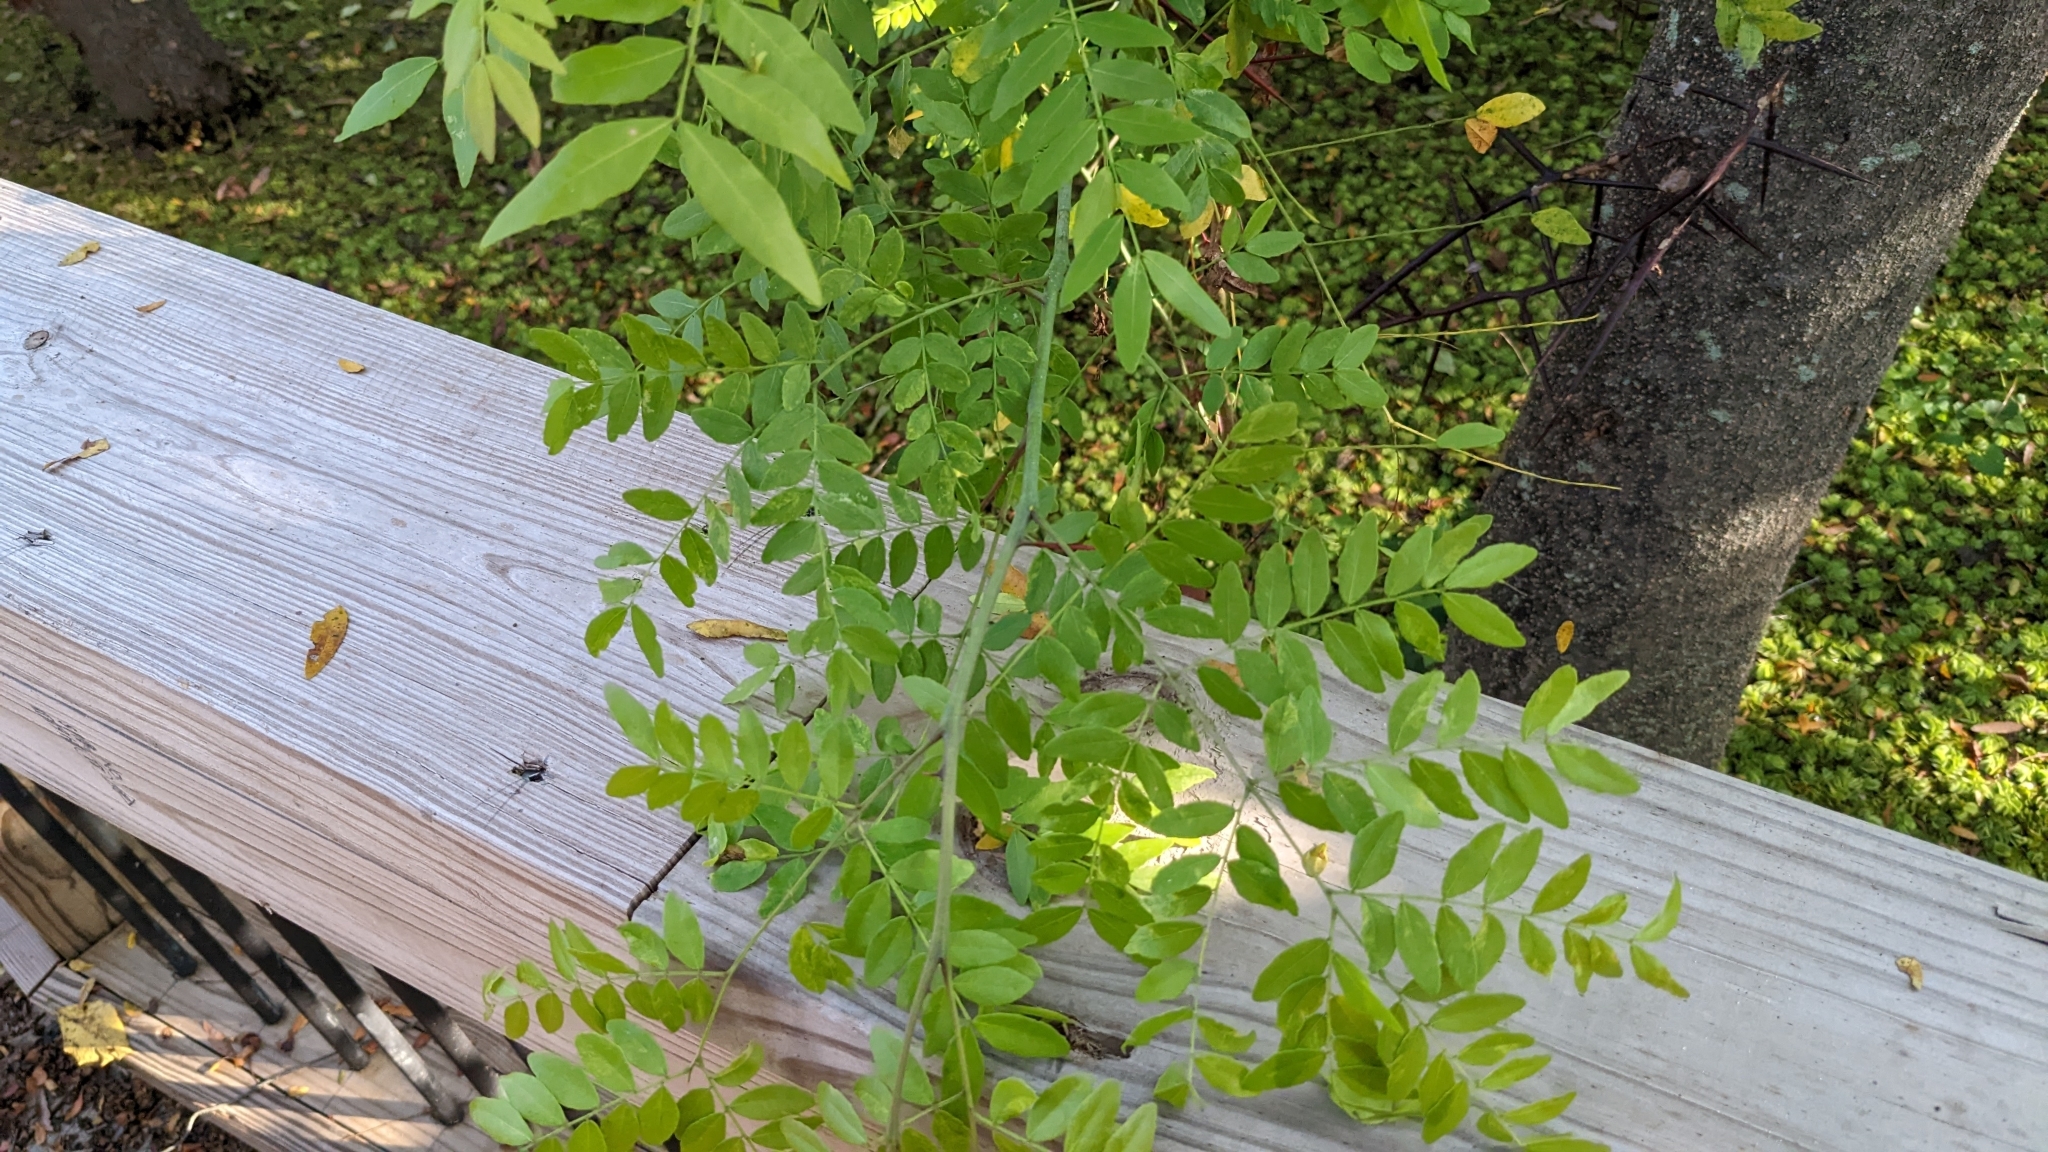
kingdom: Plantae
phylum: Tracheophyta
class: Magnoliopsida
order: Fabales
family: Fabaceae
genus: Gleditsia
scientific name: Gleditsia triacanthos
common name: Common honeylocust
